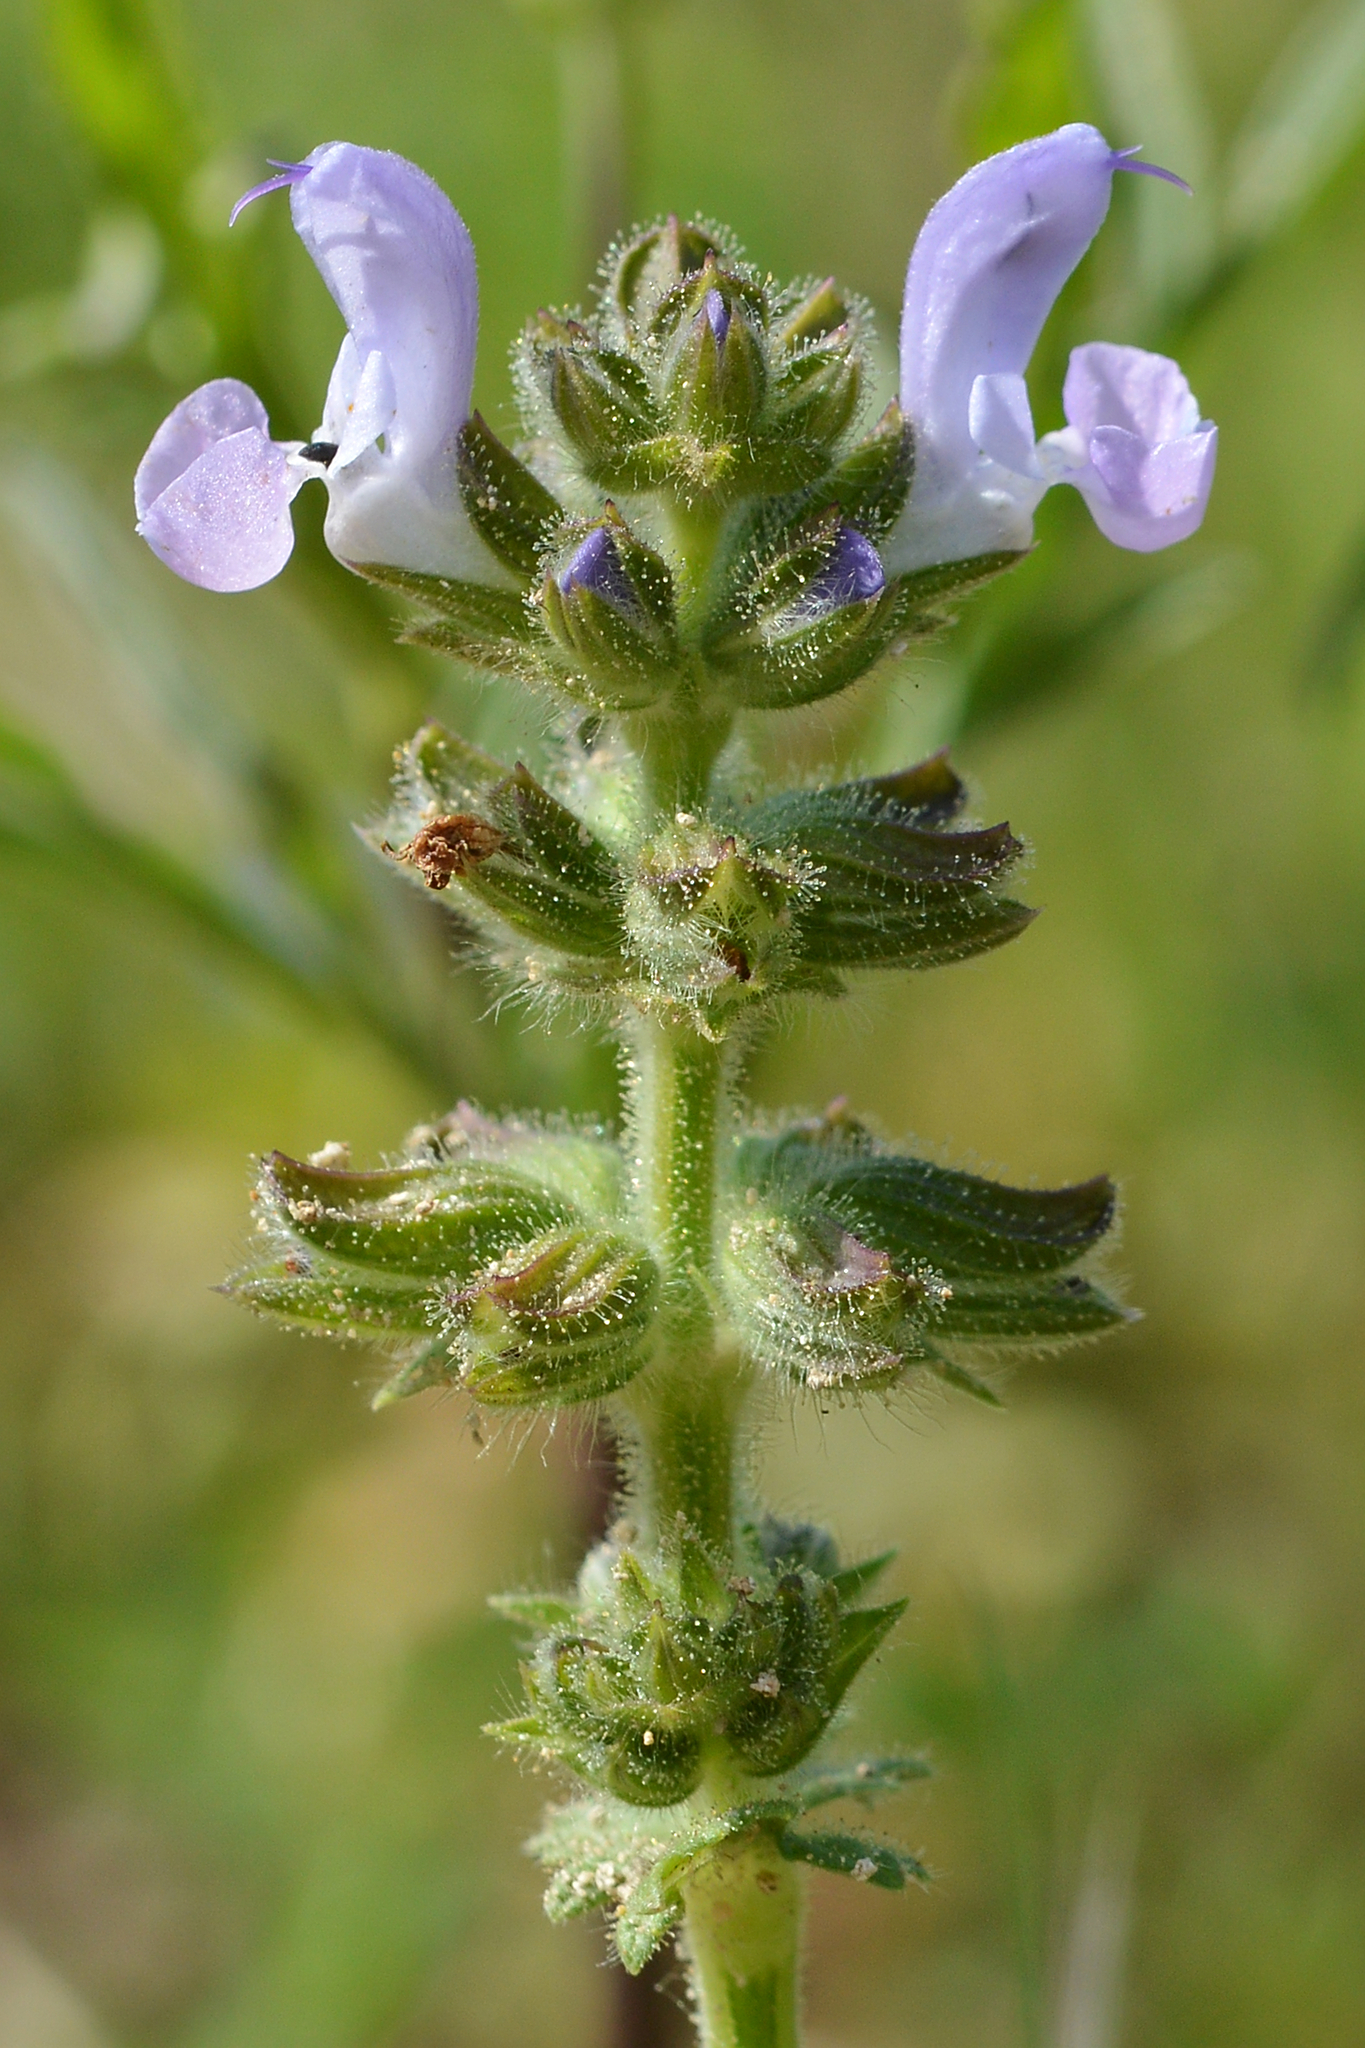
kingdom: Plantae
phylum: Tracheophyta
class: Magnoliopsida
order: Lamiales
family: Lamiaceae
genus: Salvia
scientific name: Salvia verbenaca
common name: Wild clary
